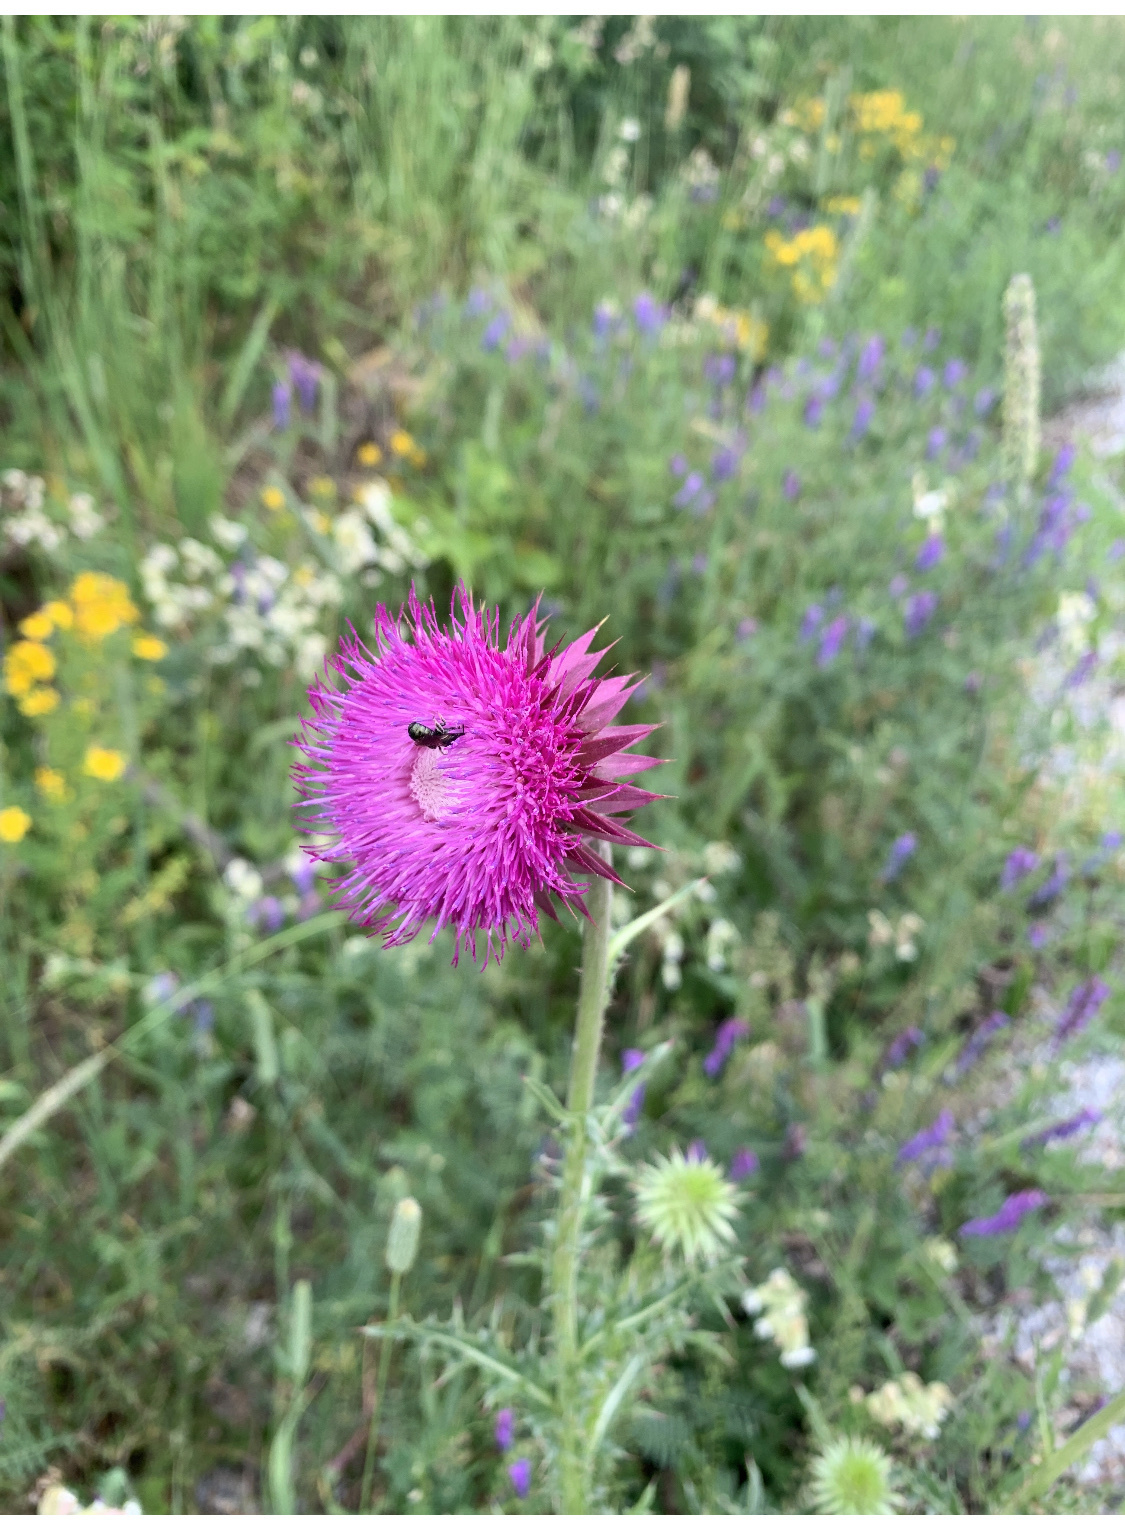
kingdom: Plantae
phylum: Tracheophyta
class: Magnoliopsida
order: Asterales
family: Asteraceae
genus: Carduus
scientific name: Carduus nutans
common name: Musk thistle
